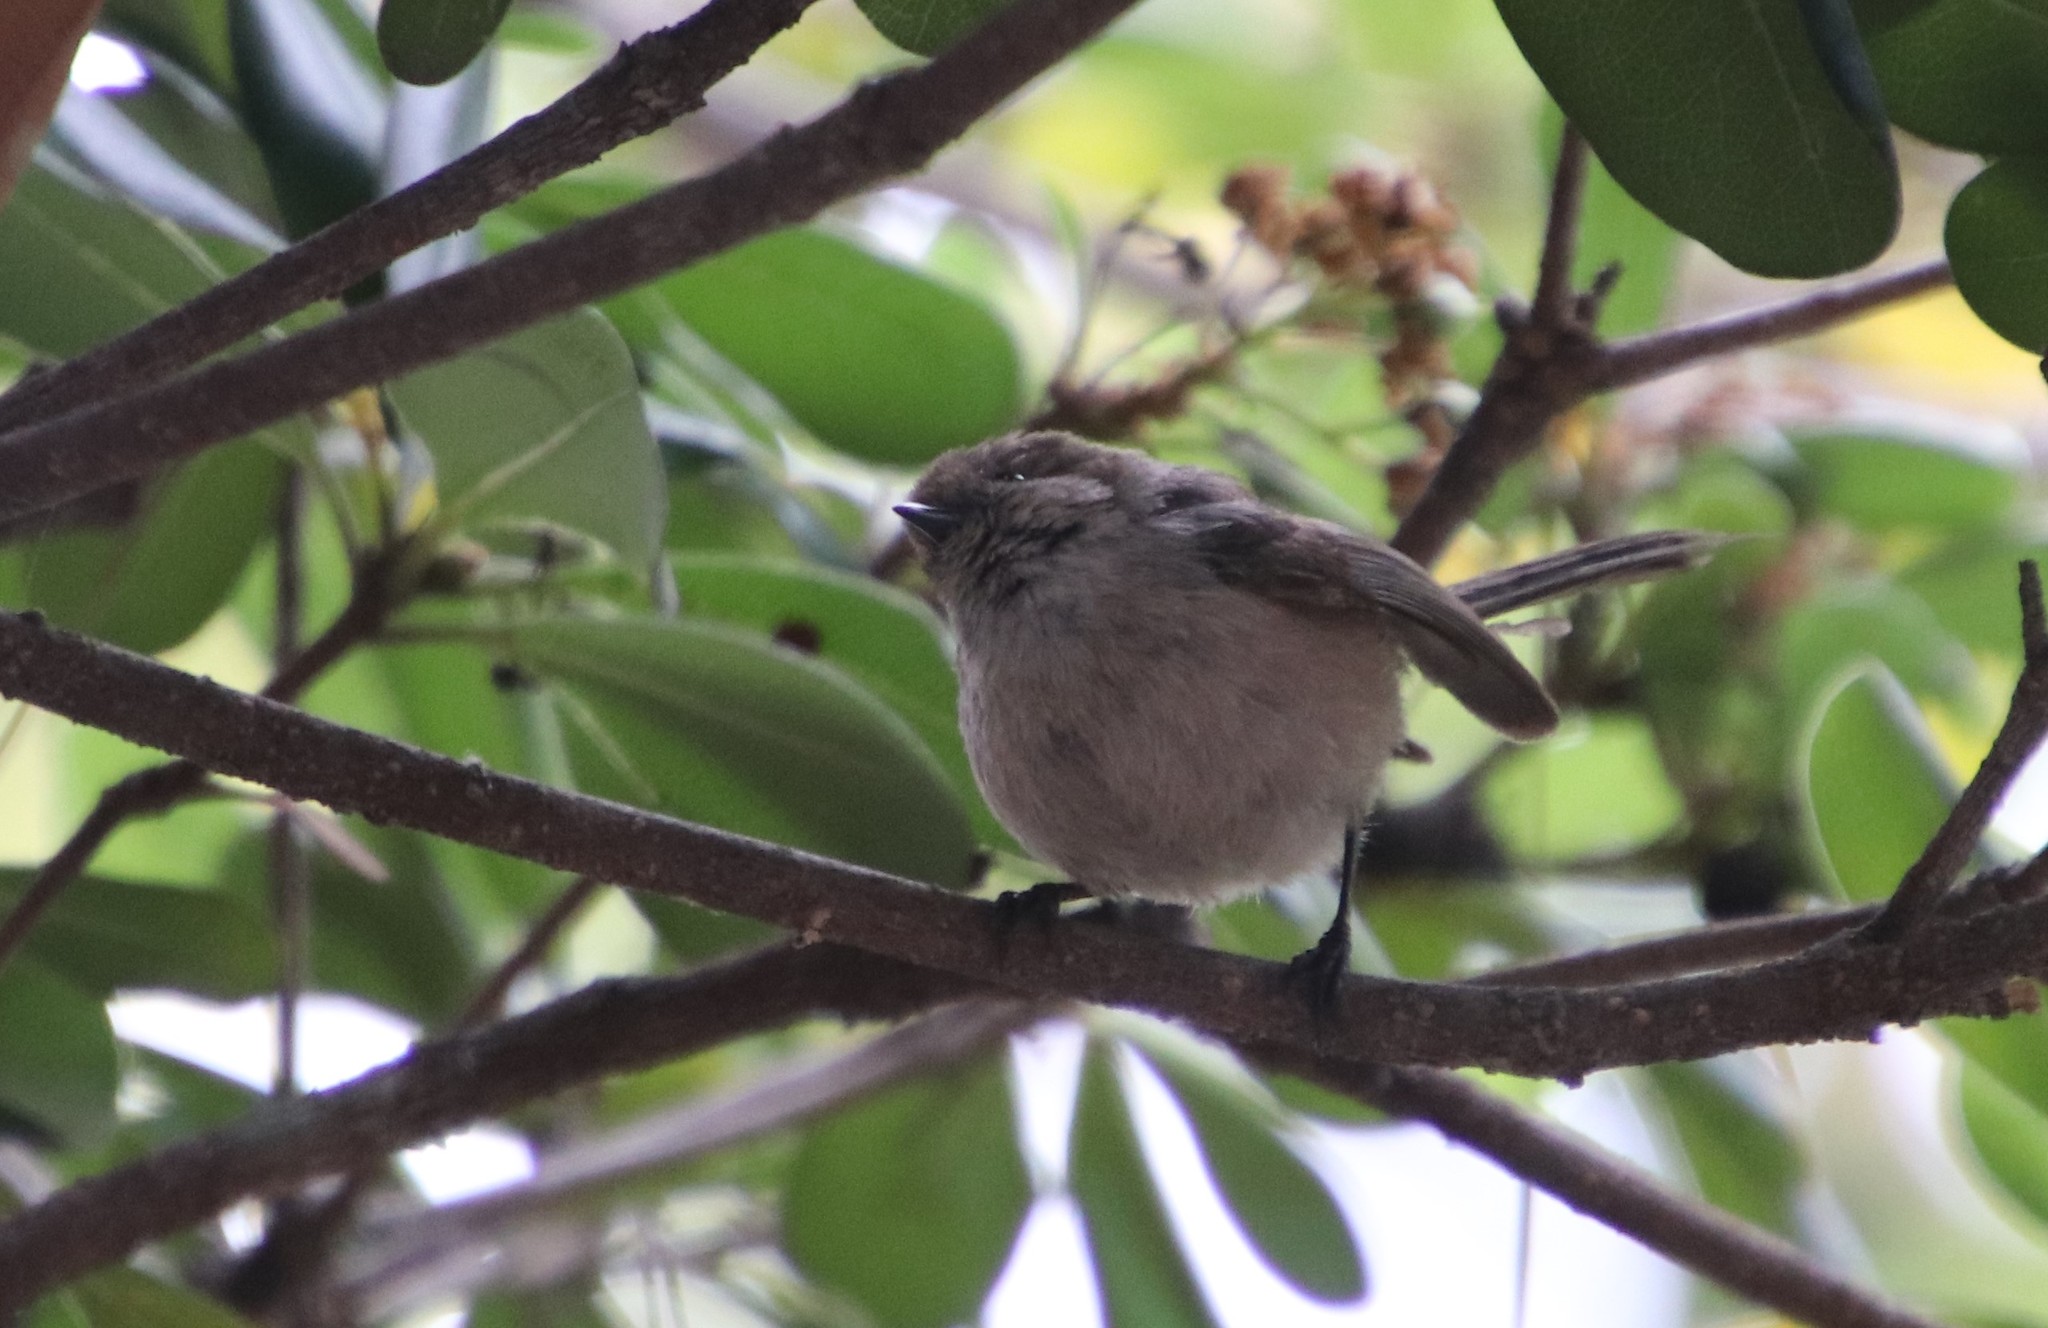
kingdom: Animalia
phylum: Chordata
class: Aves
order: Passeriformes
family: Aegithalidae
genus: Psaltriparus
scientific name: Psaltriparus minimus
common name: American bushtit
